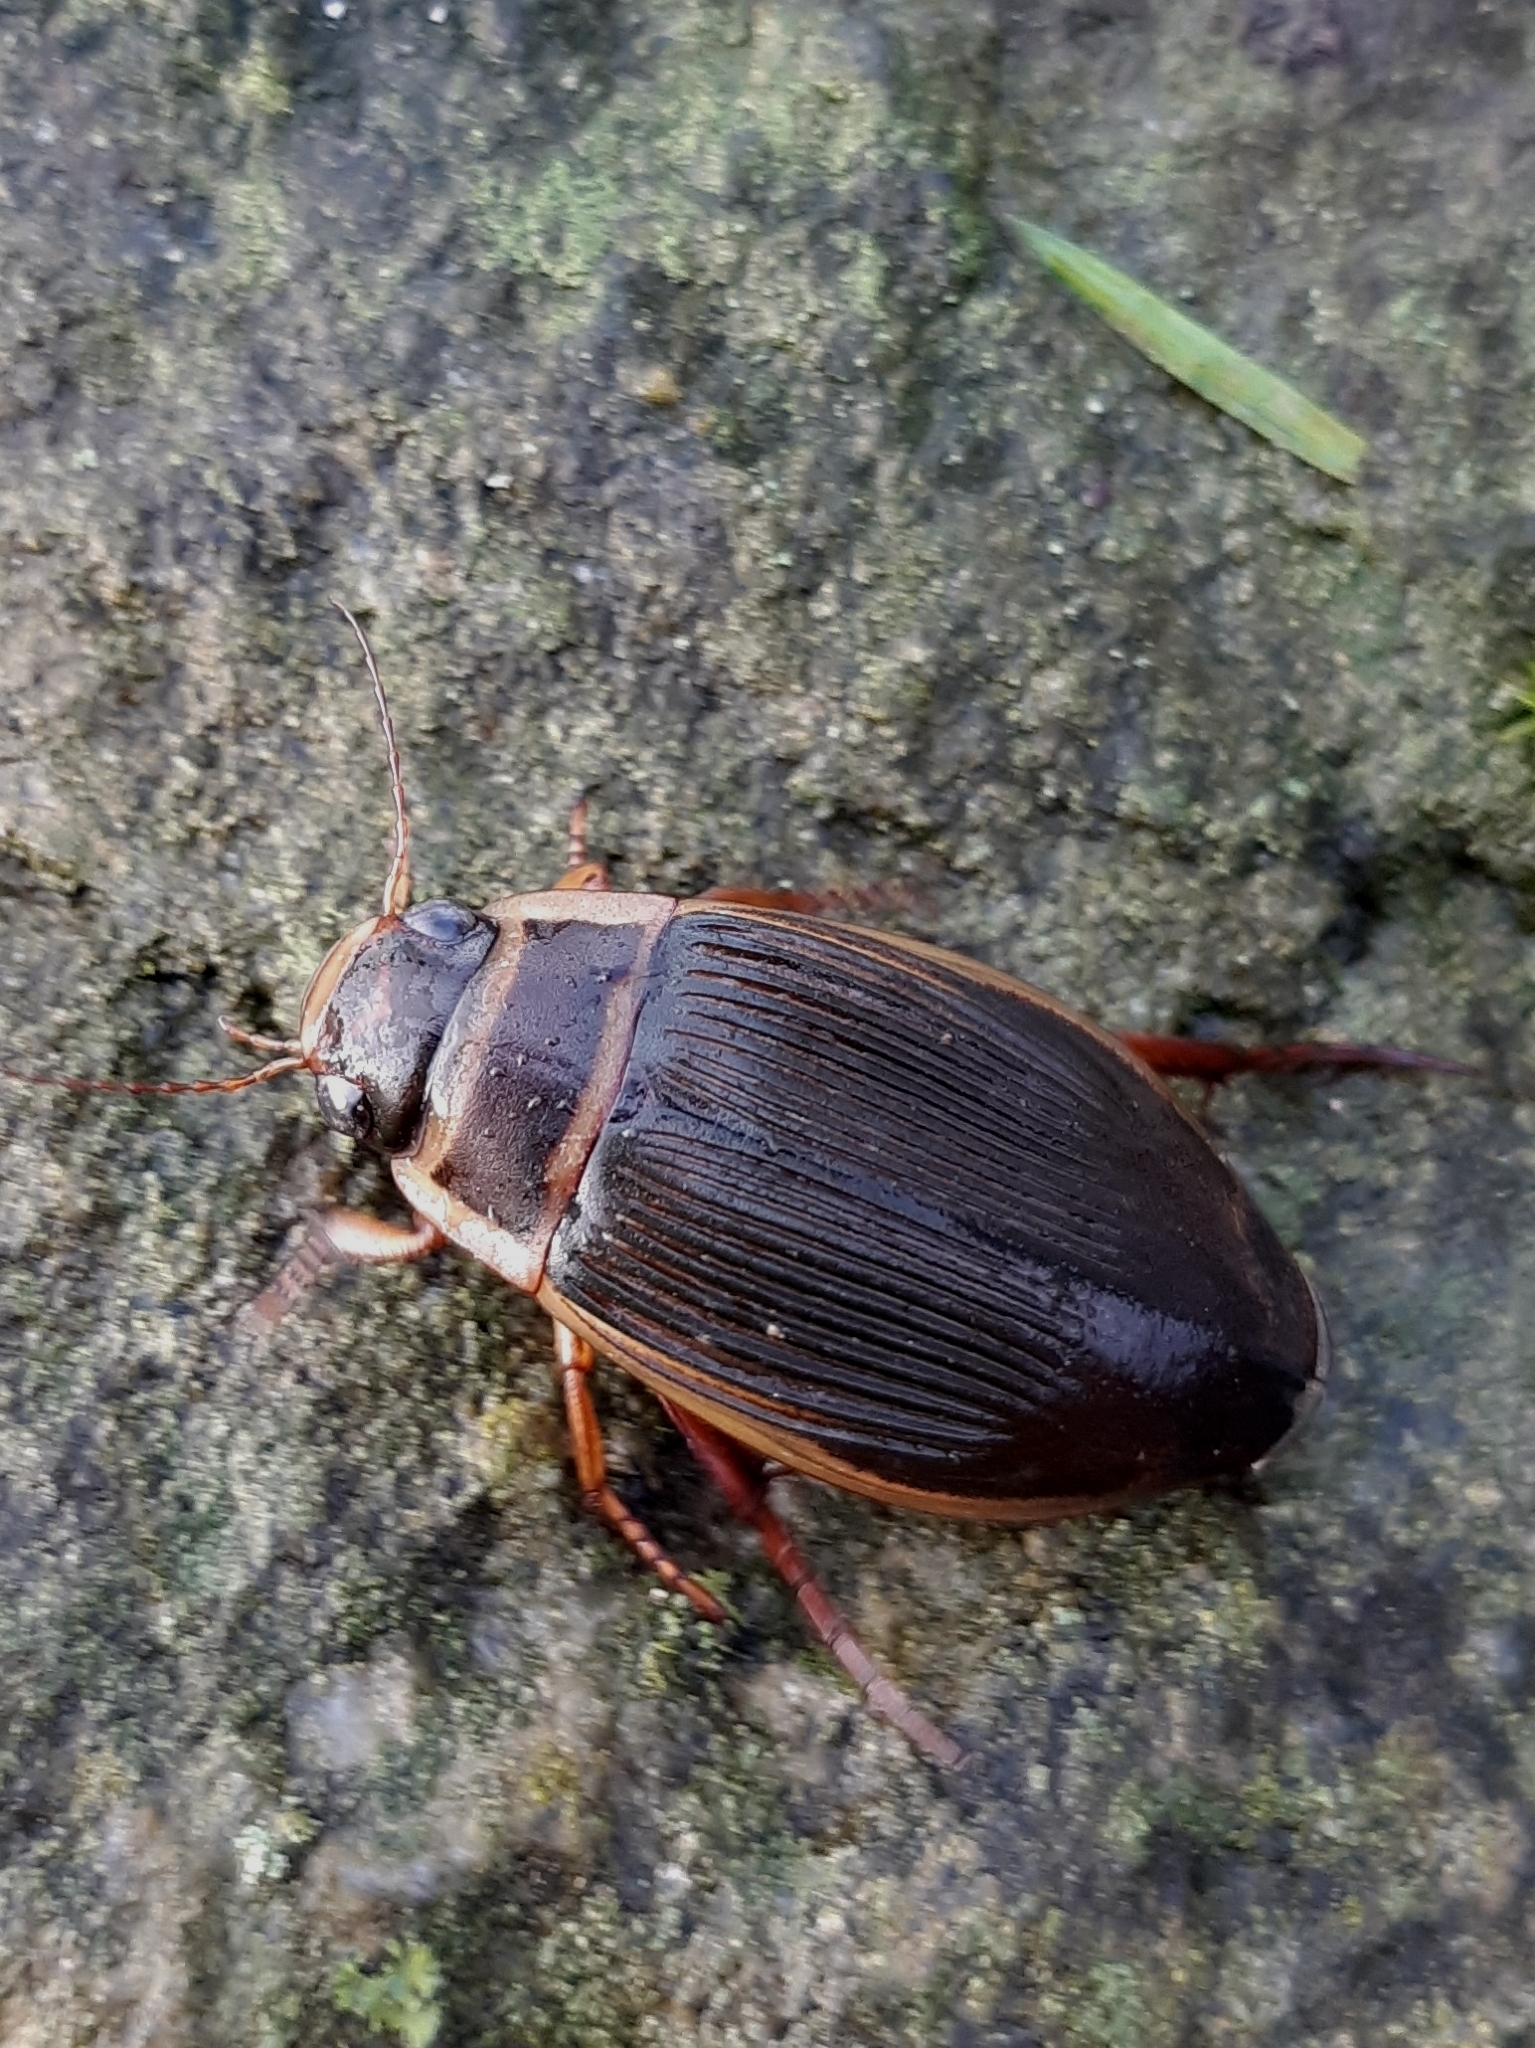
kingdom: Animalia
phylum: Arthropoda
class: Insecta
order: Coleoptera
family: Dytiscidae
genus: Dytiscus
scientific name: Dytiscus marginalis
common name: Great water beetle
